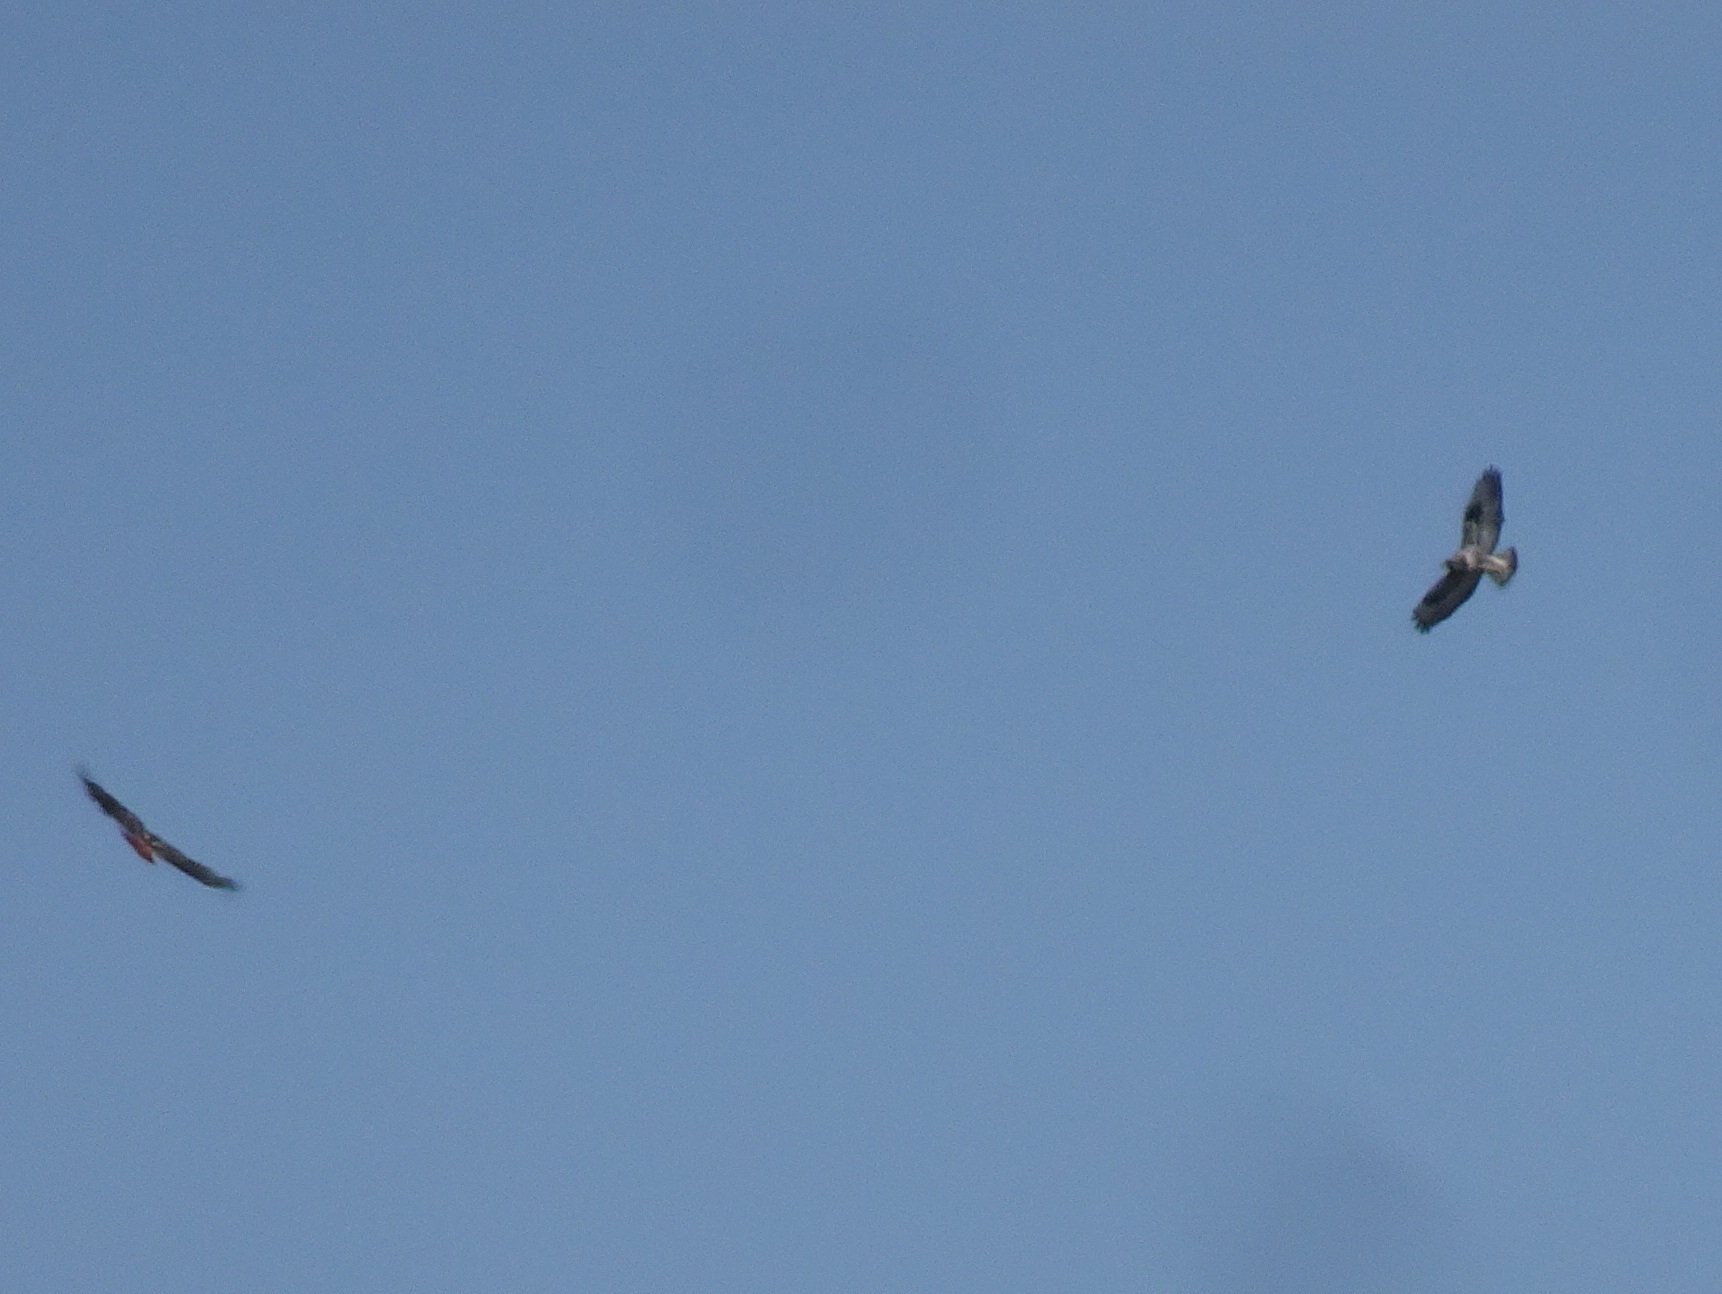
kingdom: Animalia
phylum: Chordata
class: Aves
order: Accipitriformes
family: Accipitridae
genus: Buteo
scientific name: Buteo lagopus
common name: Rough-legged buzzard
